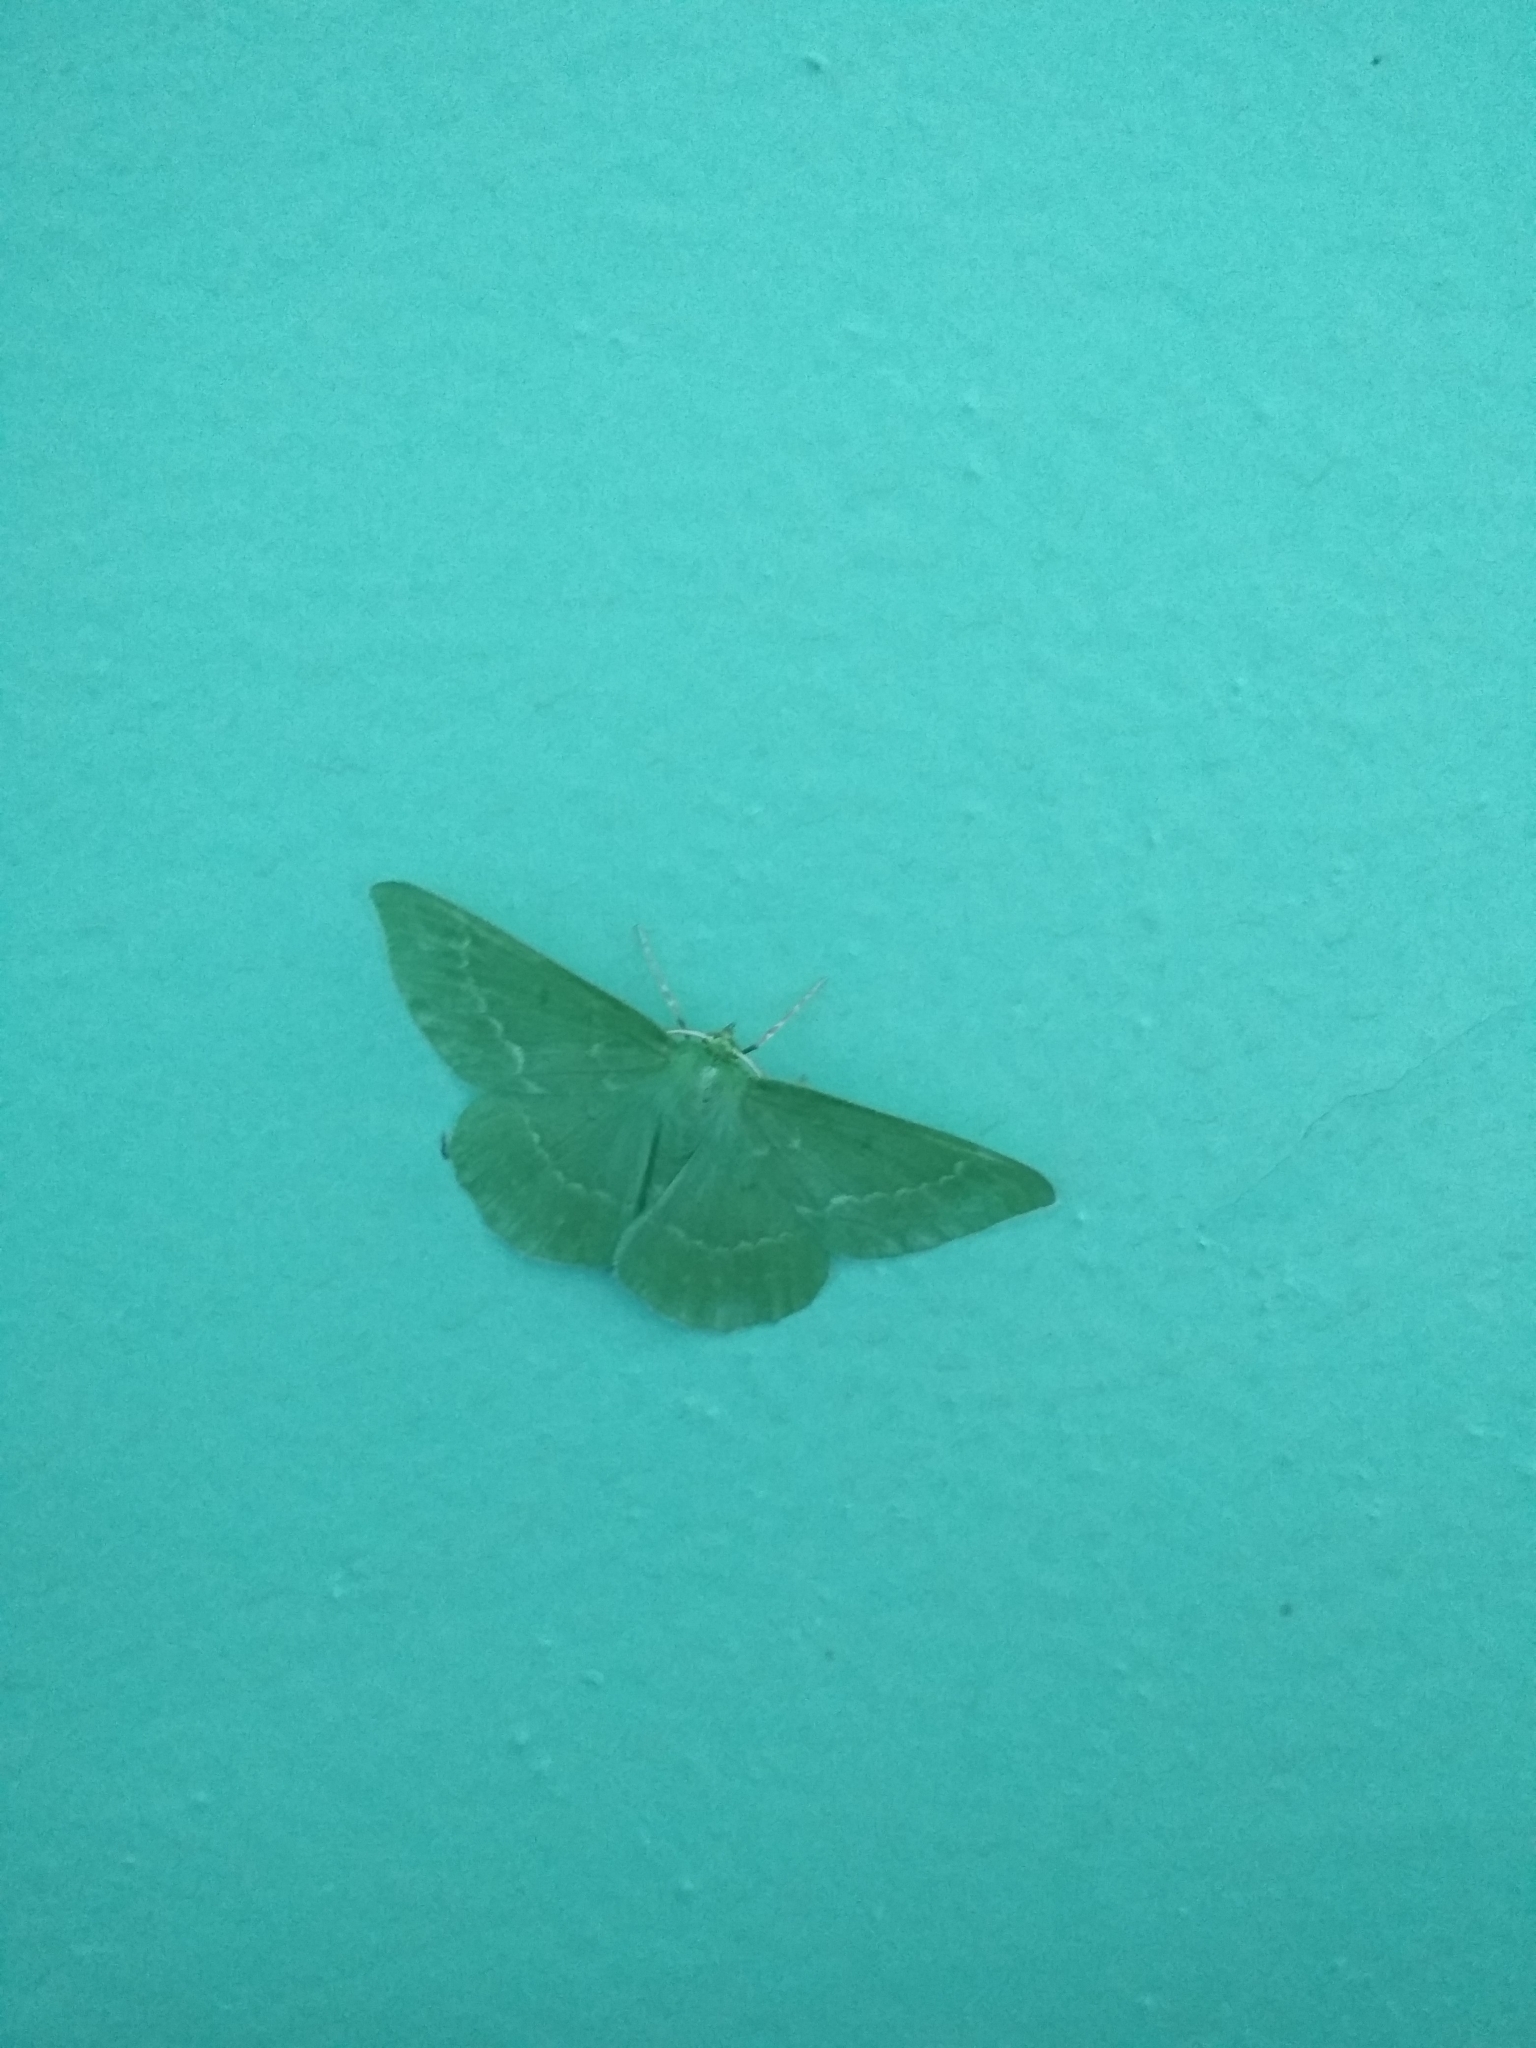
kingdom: Animalia
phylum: Arthropoda
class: Insecta
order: Lepidoptera
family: Geometridae
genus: Geometra
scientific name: Geometra papilionaria
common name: Large emerald
